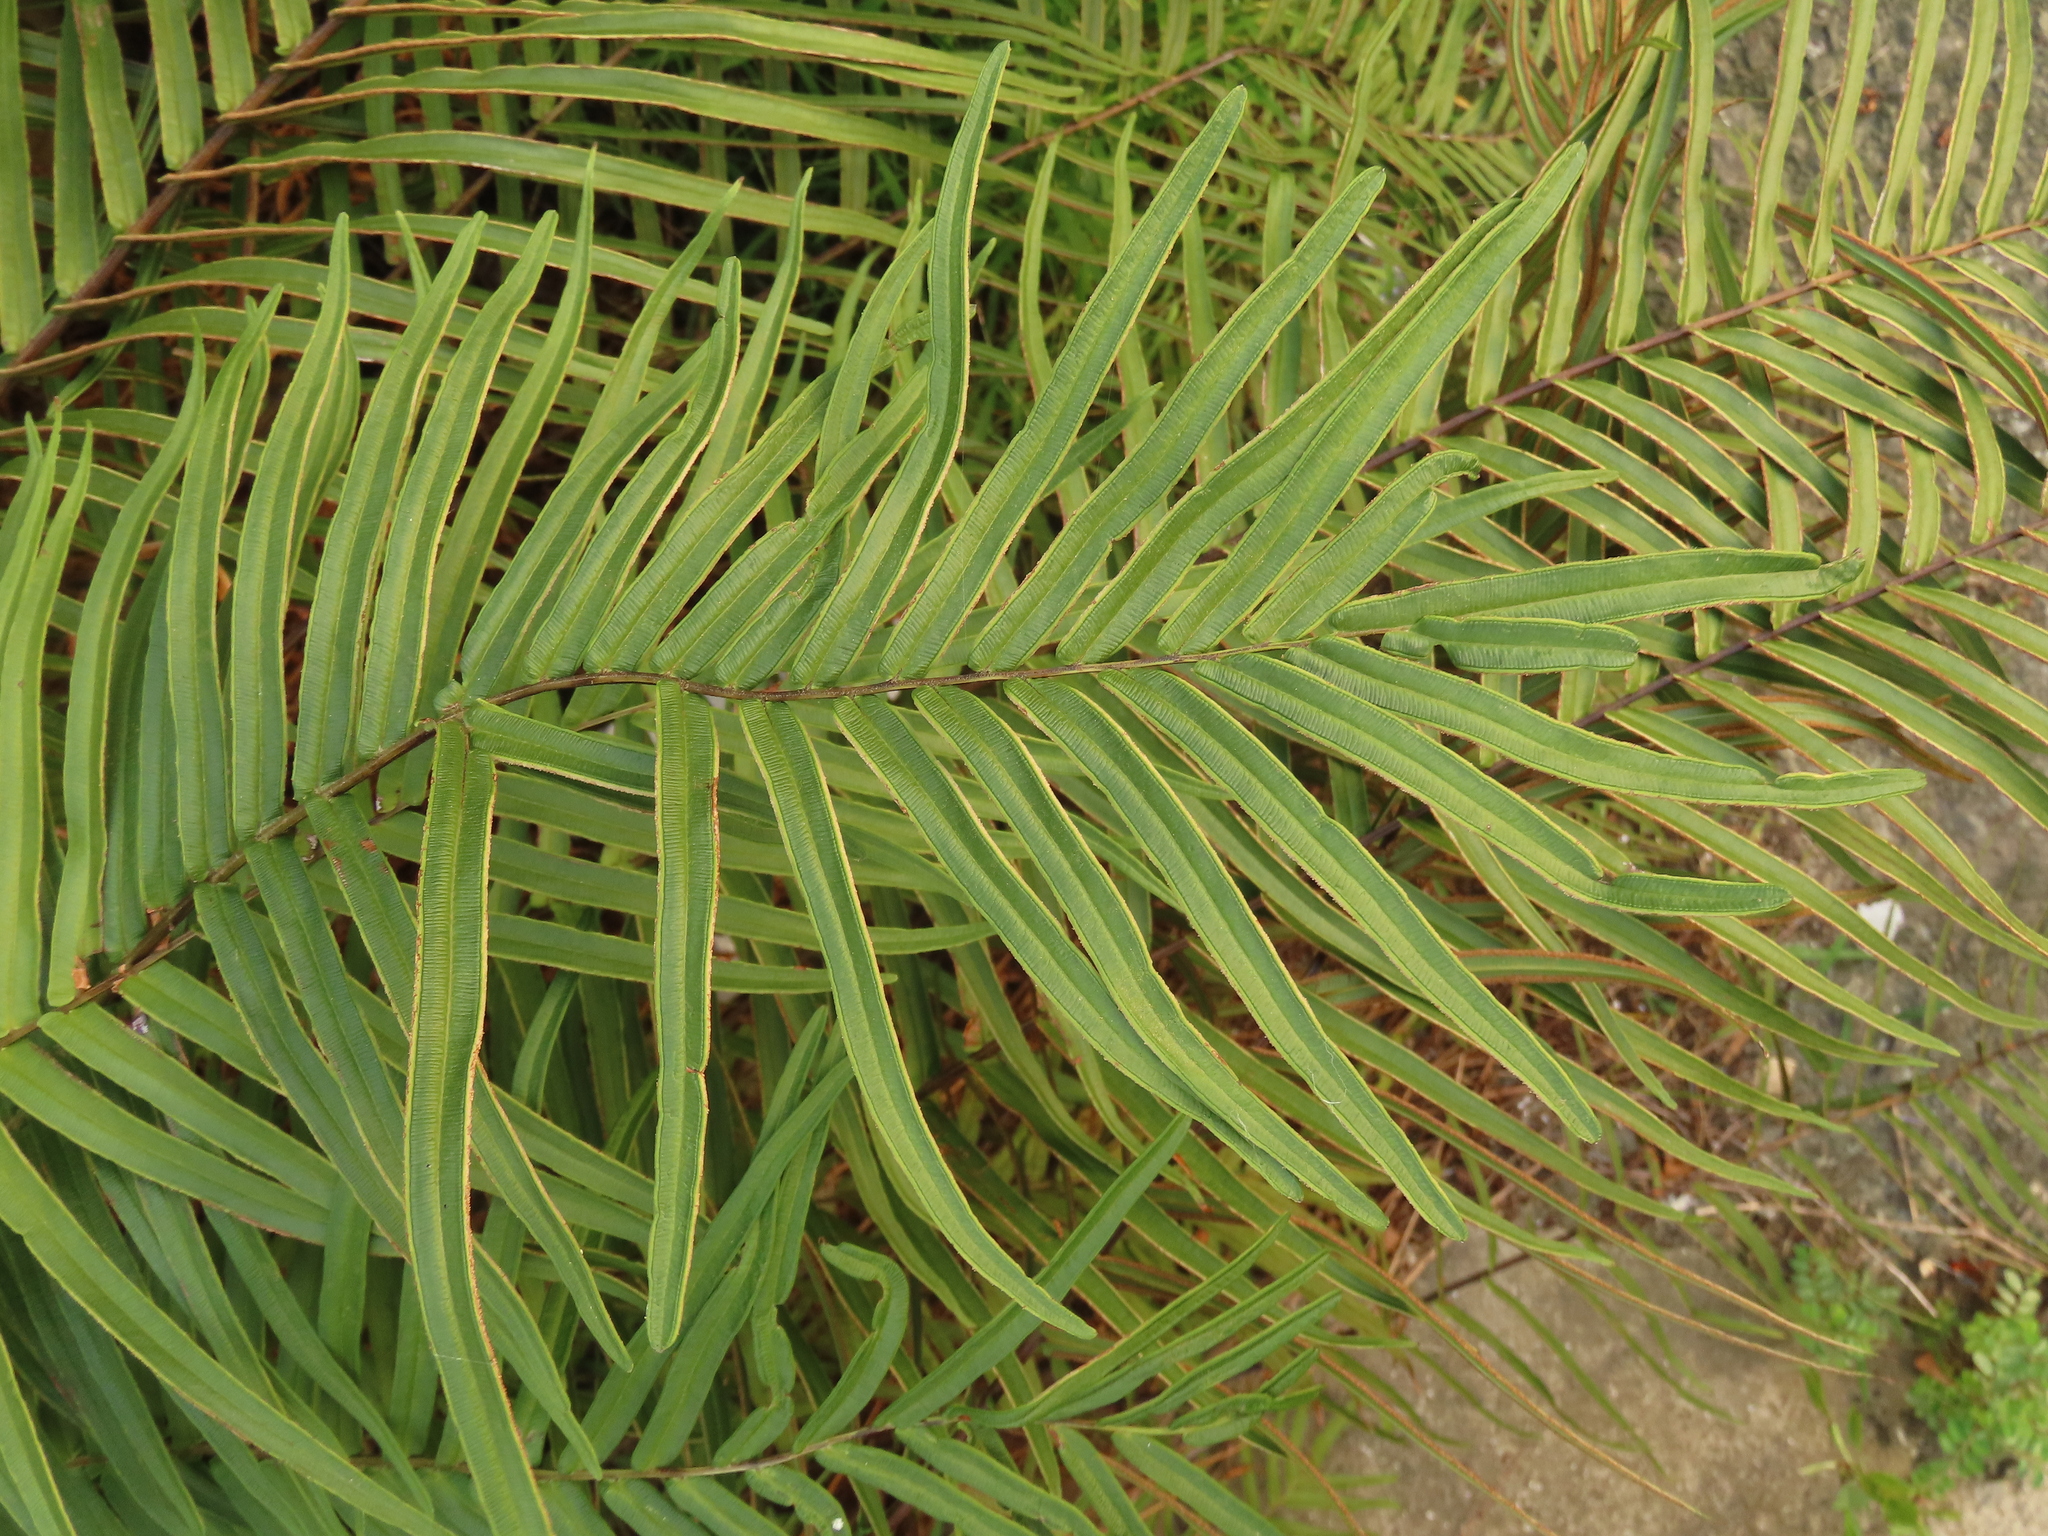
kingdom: Plantae
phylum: Tracheophyta
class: Polypodiopsida
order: Polypodiales
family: Pteridaceae
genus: Pteris
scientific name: Pteris vittata
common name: Ladder brake
